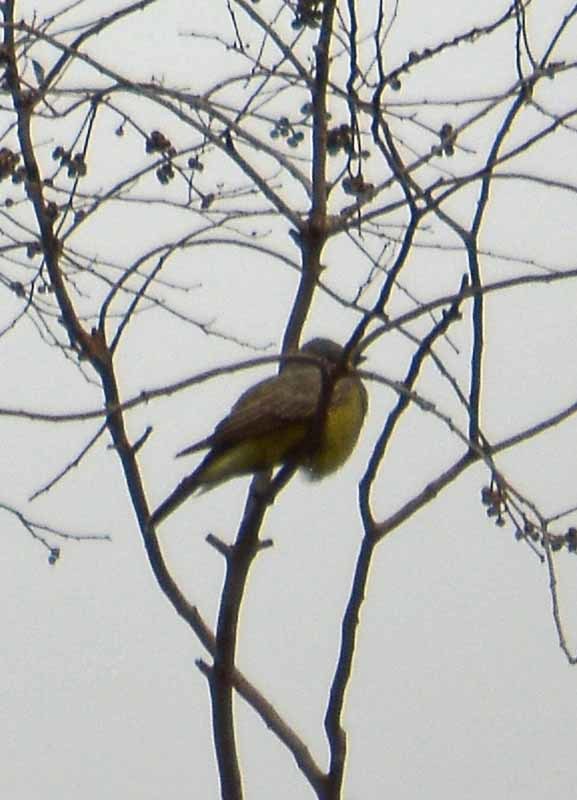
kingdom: Animalia
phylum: Chordata
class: Aves
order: Passeriformes
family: Tyrannidae
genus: Tyrannus
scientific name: Tyrannus vociferans
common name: Cassin's kingbird
